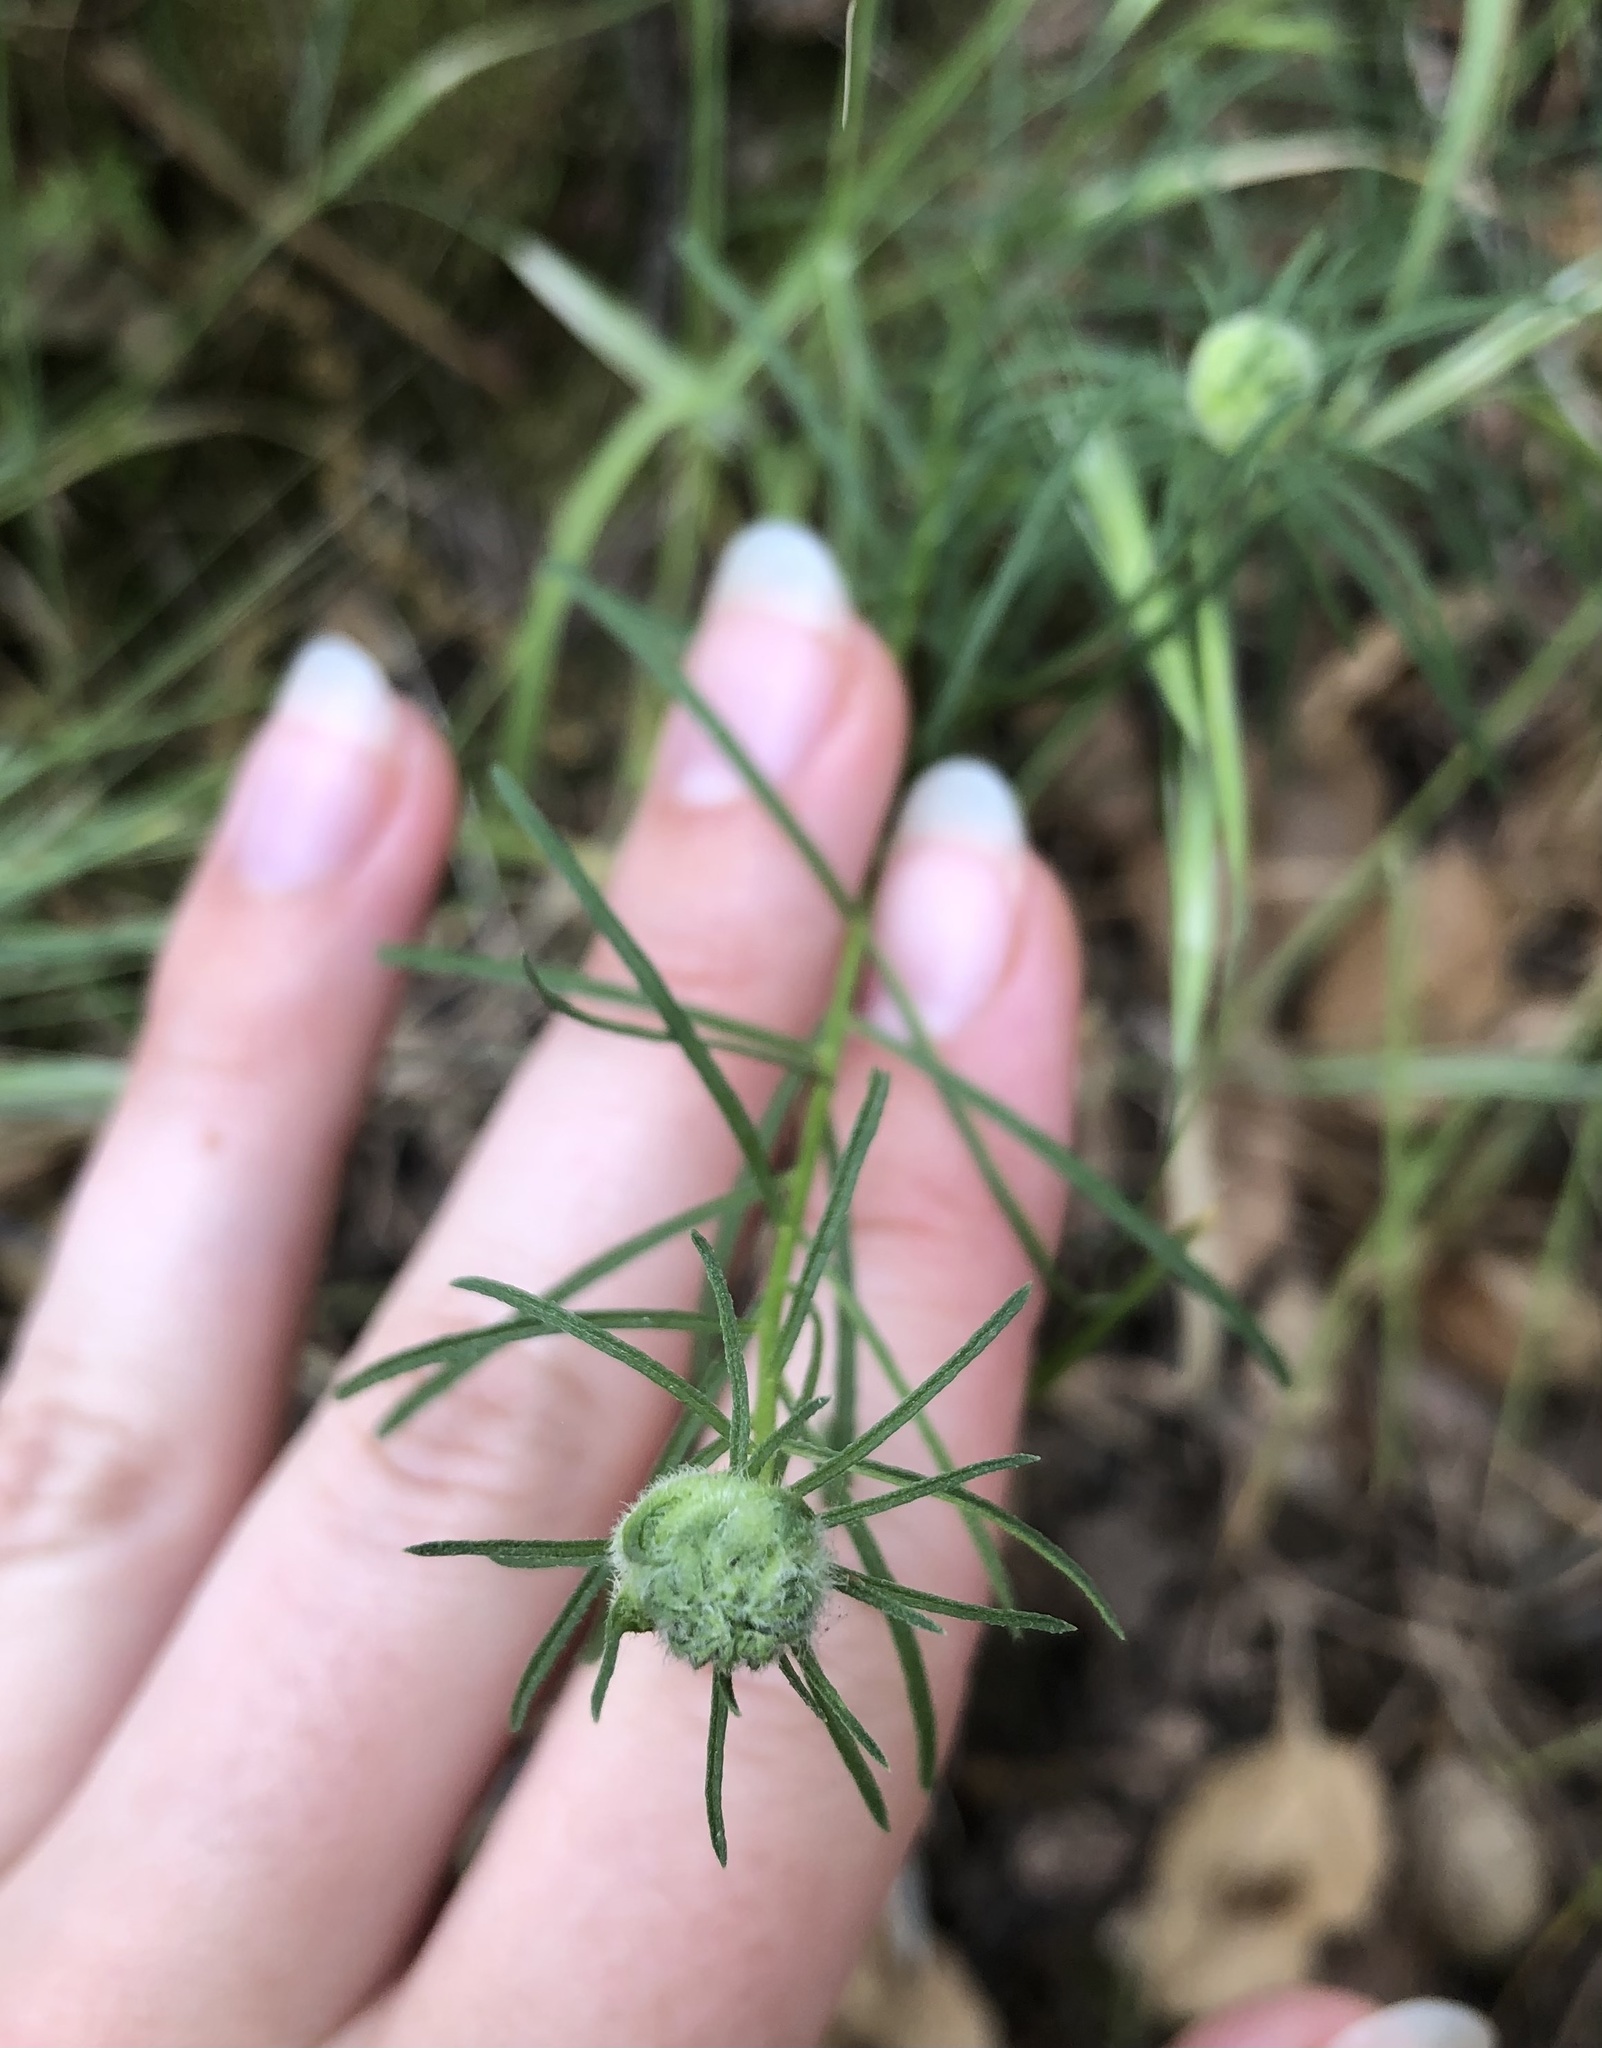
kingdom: Plantae
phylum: Tracheophyta
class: Magnoliopsida
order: Asterales
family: Asteraceae
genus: Erigeron
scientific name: Erigeron foliosus
